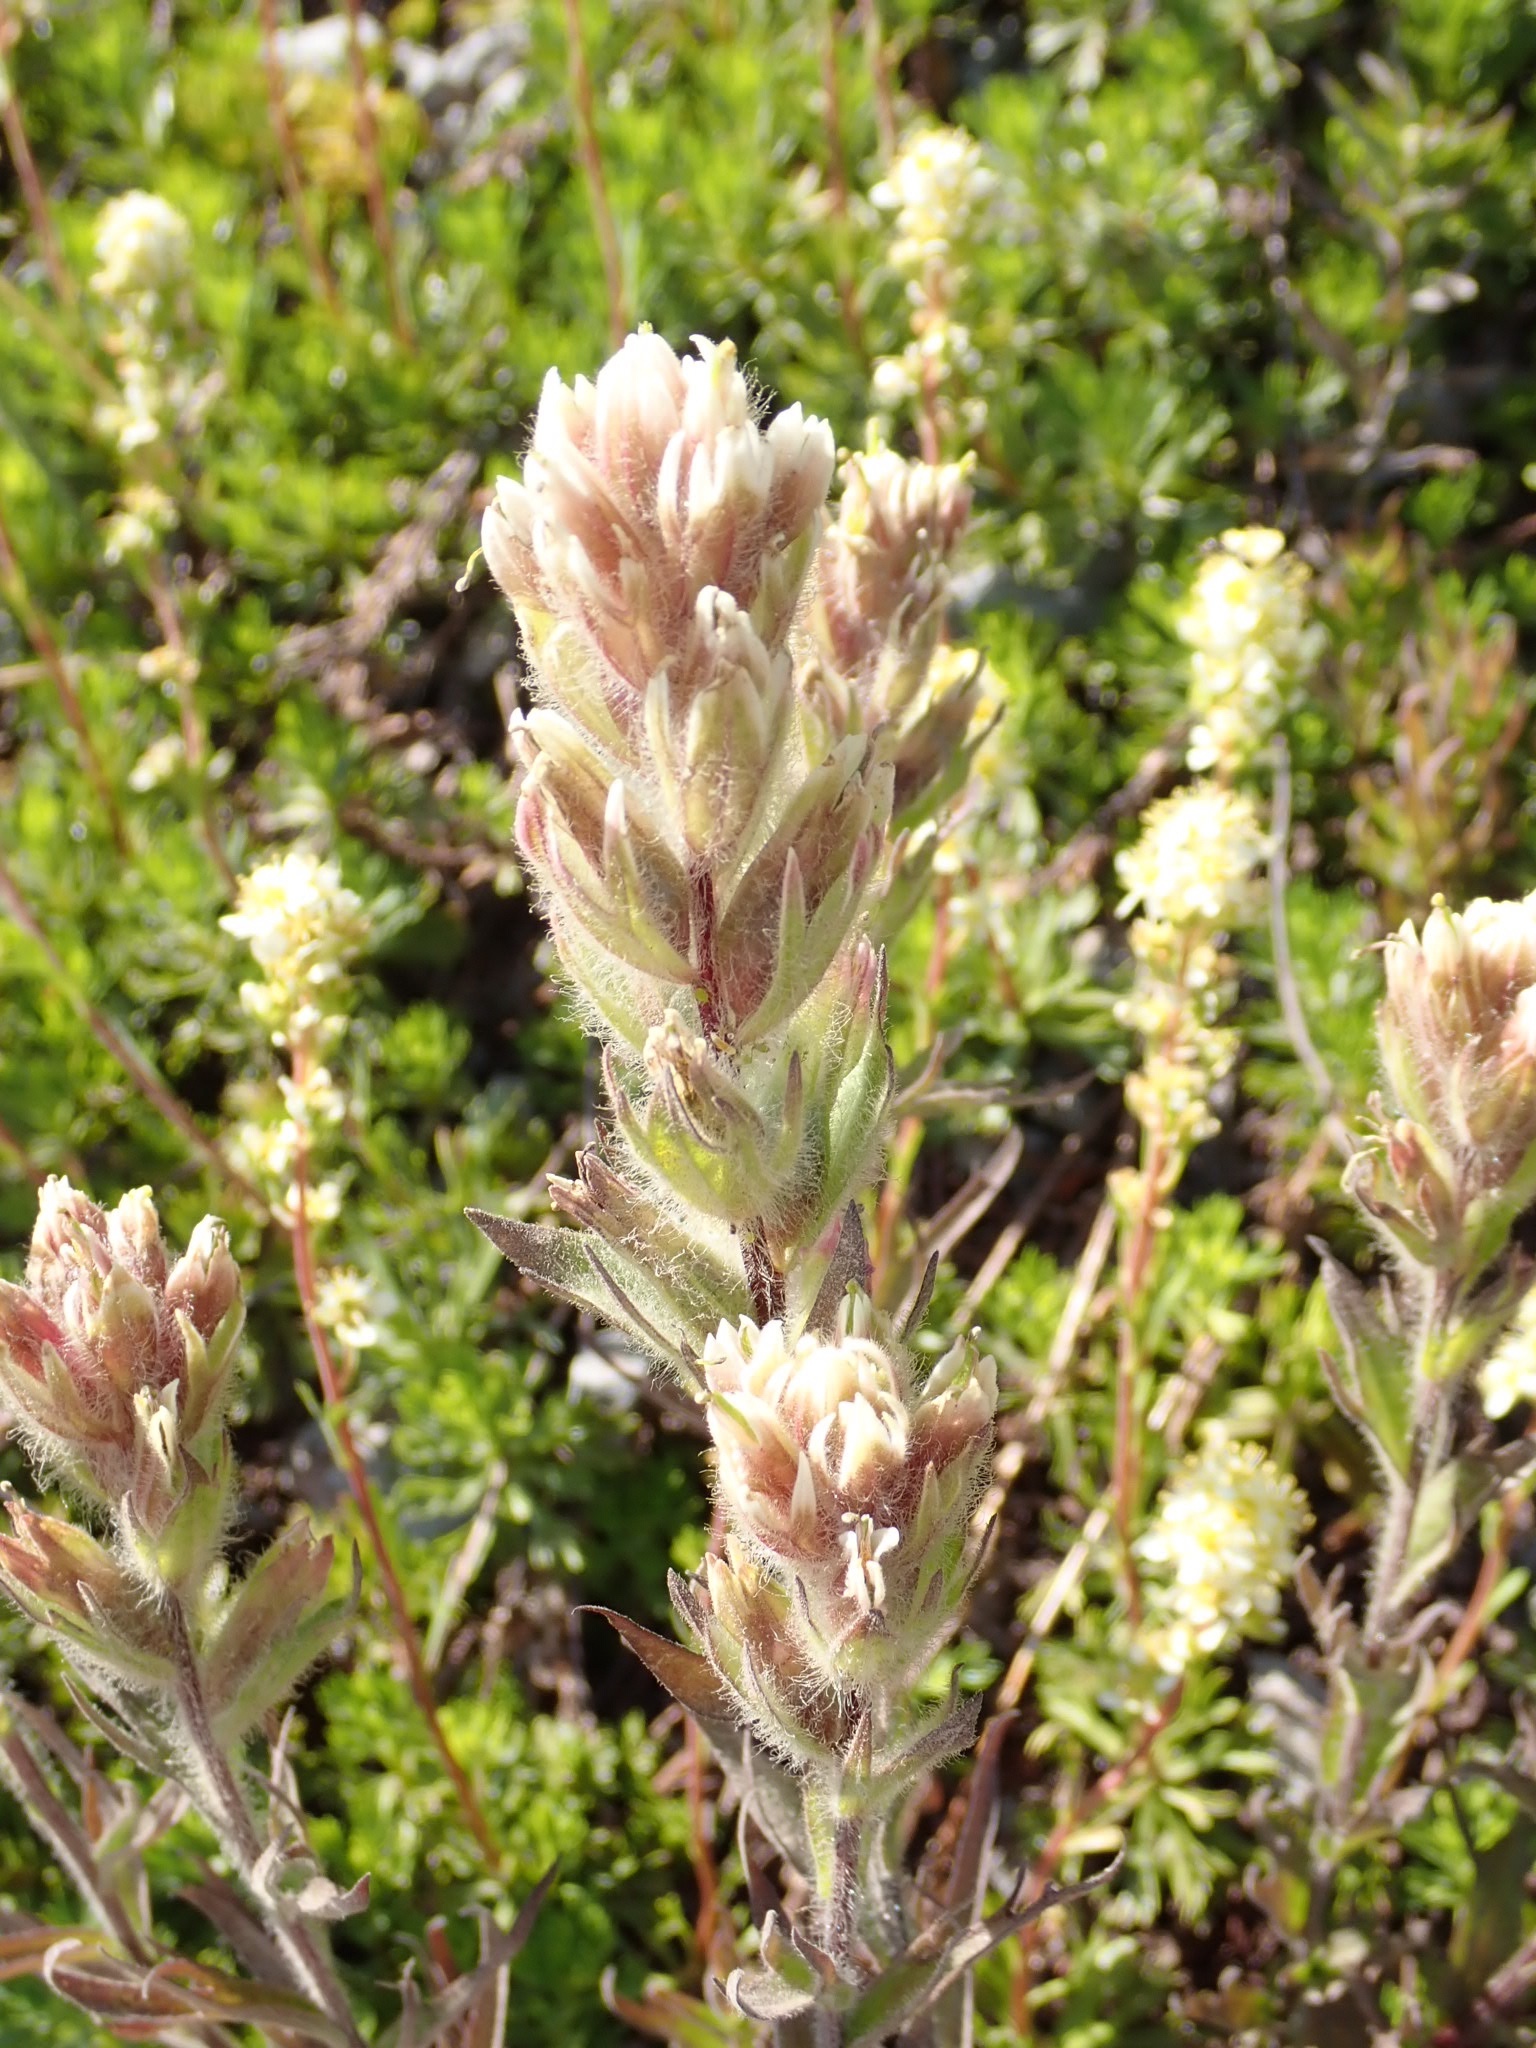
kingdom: Plantae
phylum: Tracheophyta
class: Magnoliopsida
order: Lamiales
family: Orobanchaceae
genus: Castilleja
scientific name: Castilleja parviflora
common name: Mountain paintbrush
